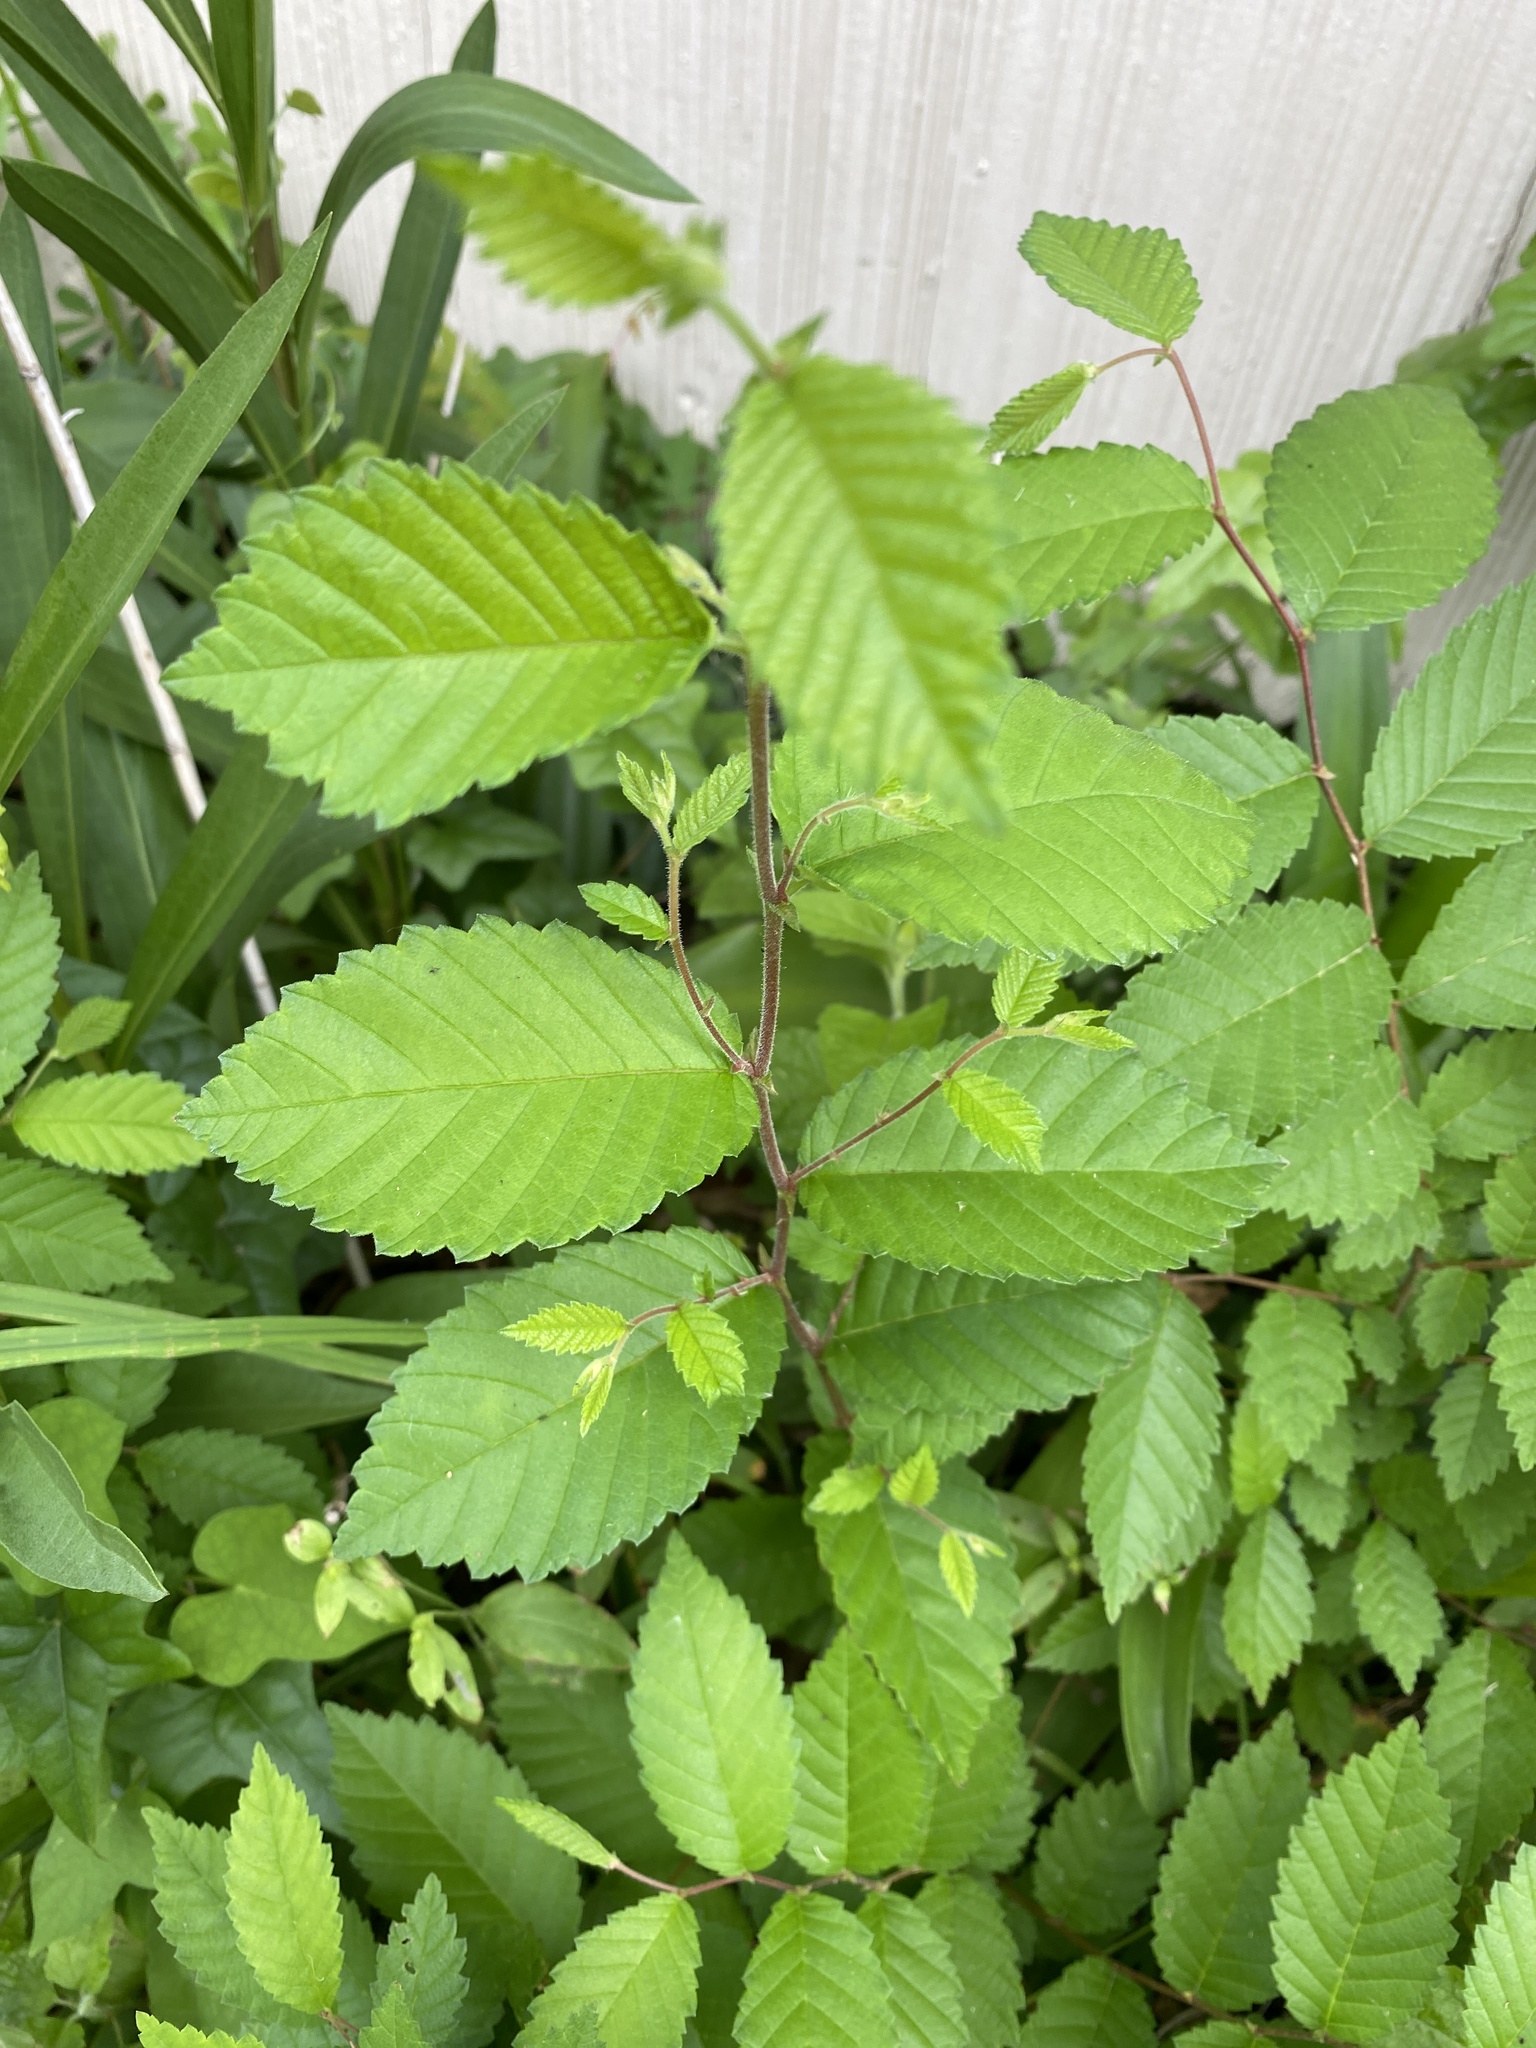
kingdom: Plantae
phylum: Tracheophyta
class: Magnoliopsida
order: Rosales
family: Ulmaceae
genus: Ulmus
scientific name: Ulmus americana
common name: American elm
